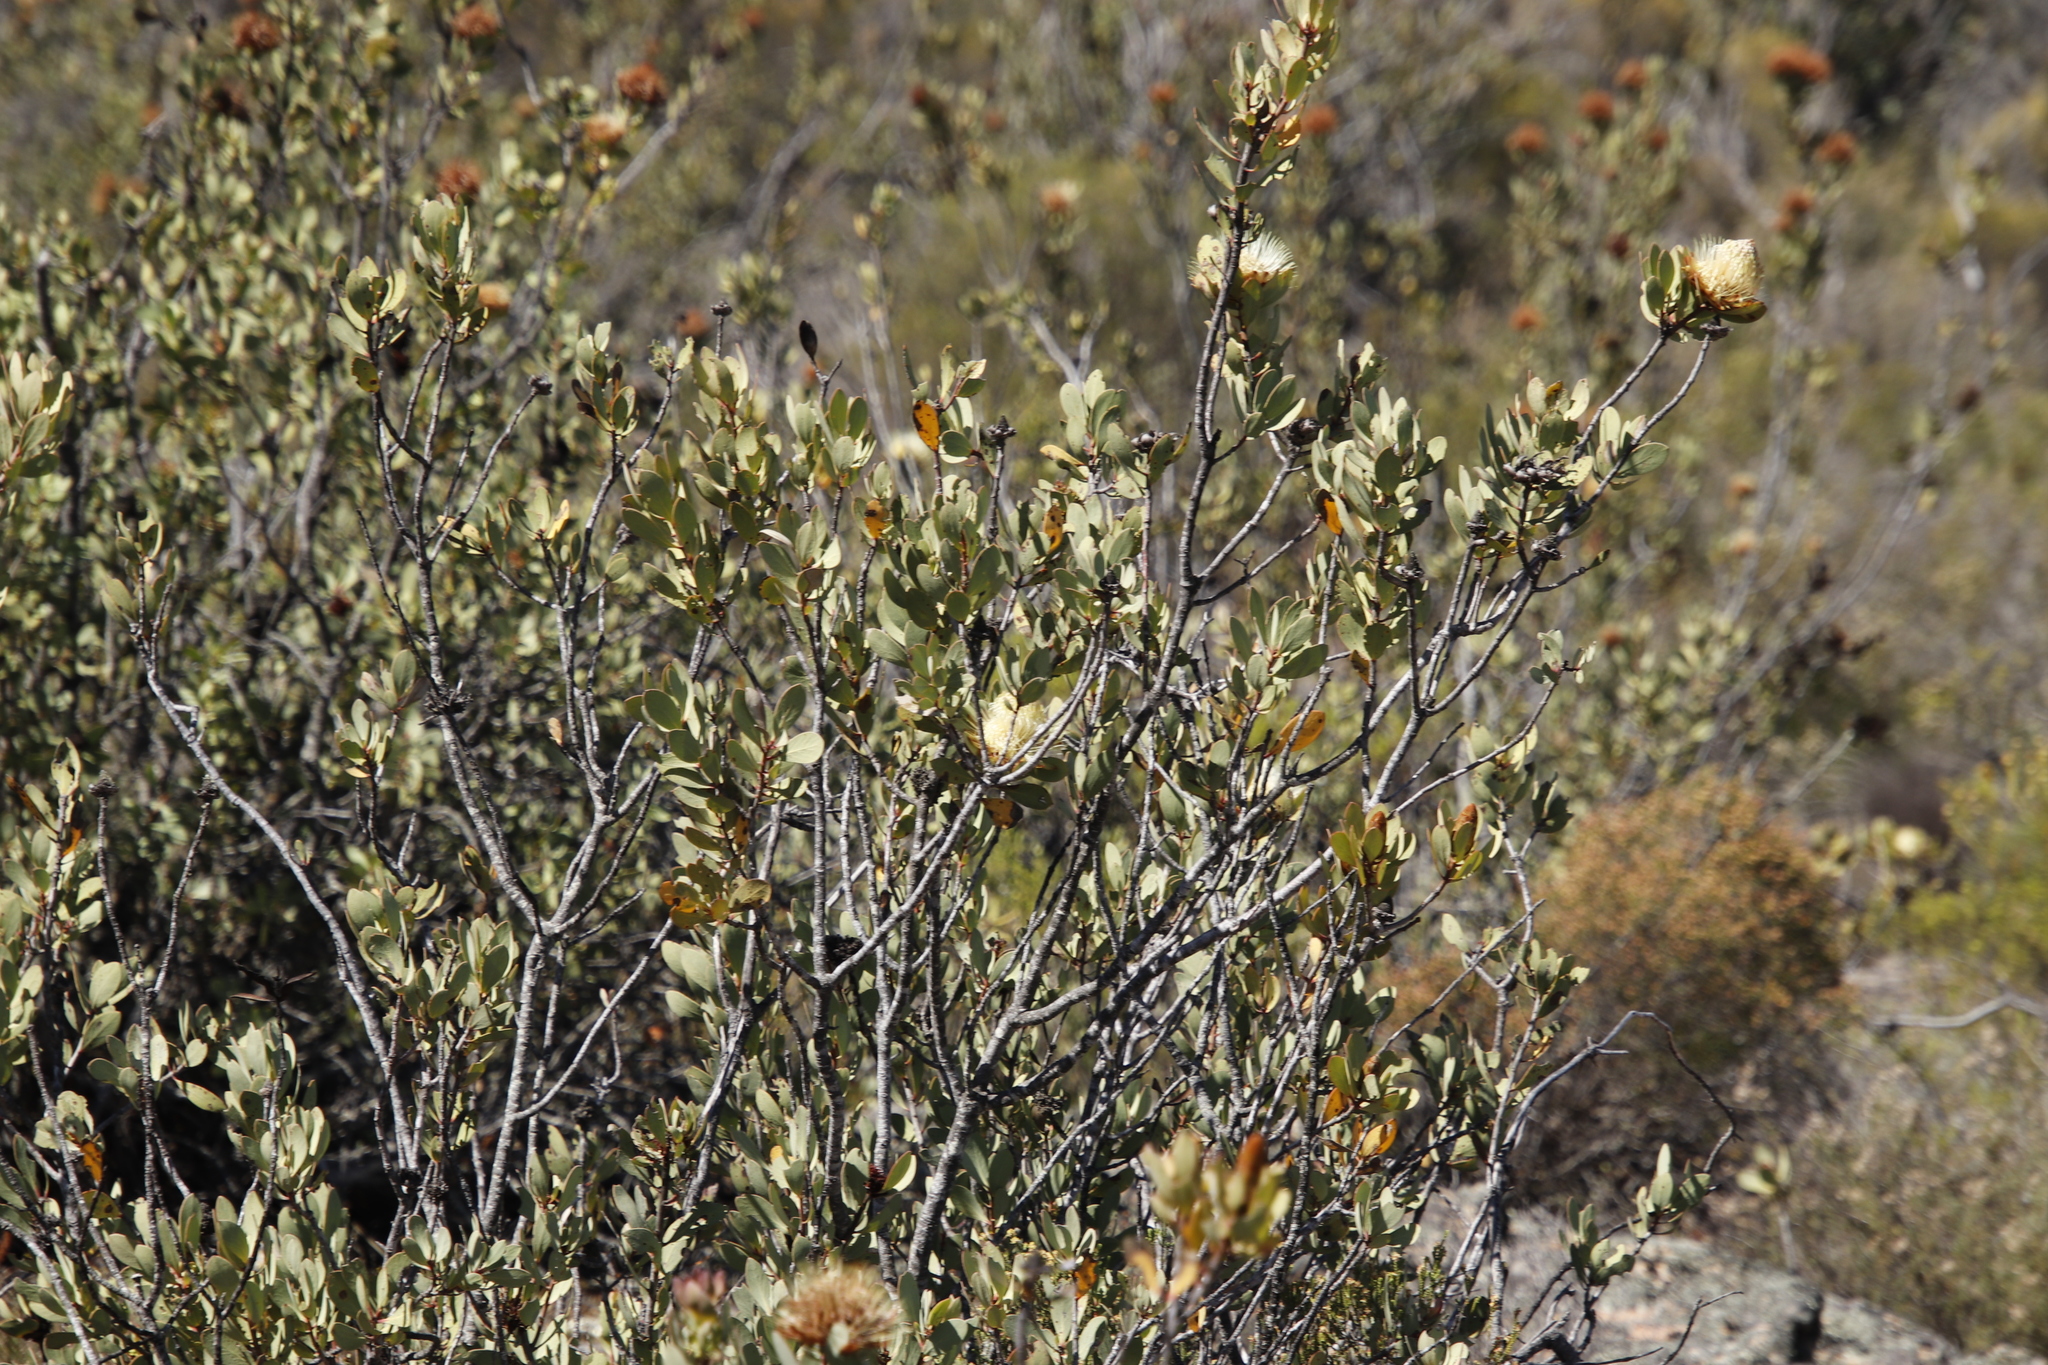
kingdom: Plantae
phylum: Tracheophyta
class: Magnoliopsida
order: Proteales
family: Proteaceae
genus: Protea
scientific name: Protea glabra
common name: Chestnut sugarbush
